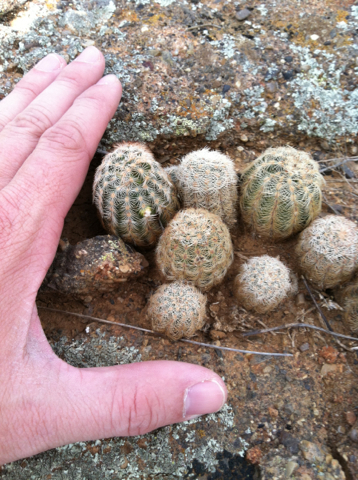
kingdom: Plantae
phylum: Tracheophyta
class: Magnoliopsida
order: Caryophyllales
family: Cactaceae
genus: Echinocereus
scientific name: Echinocereus reichenbachii
